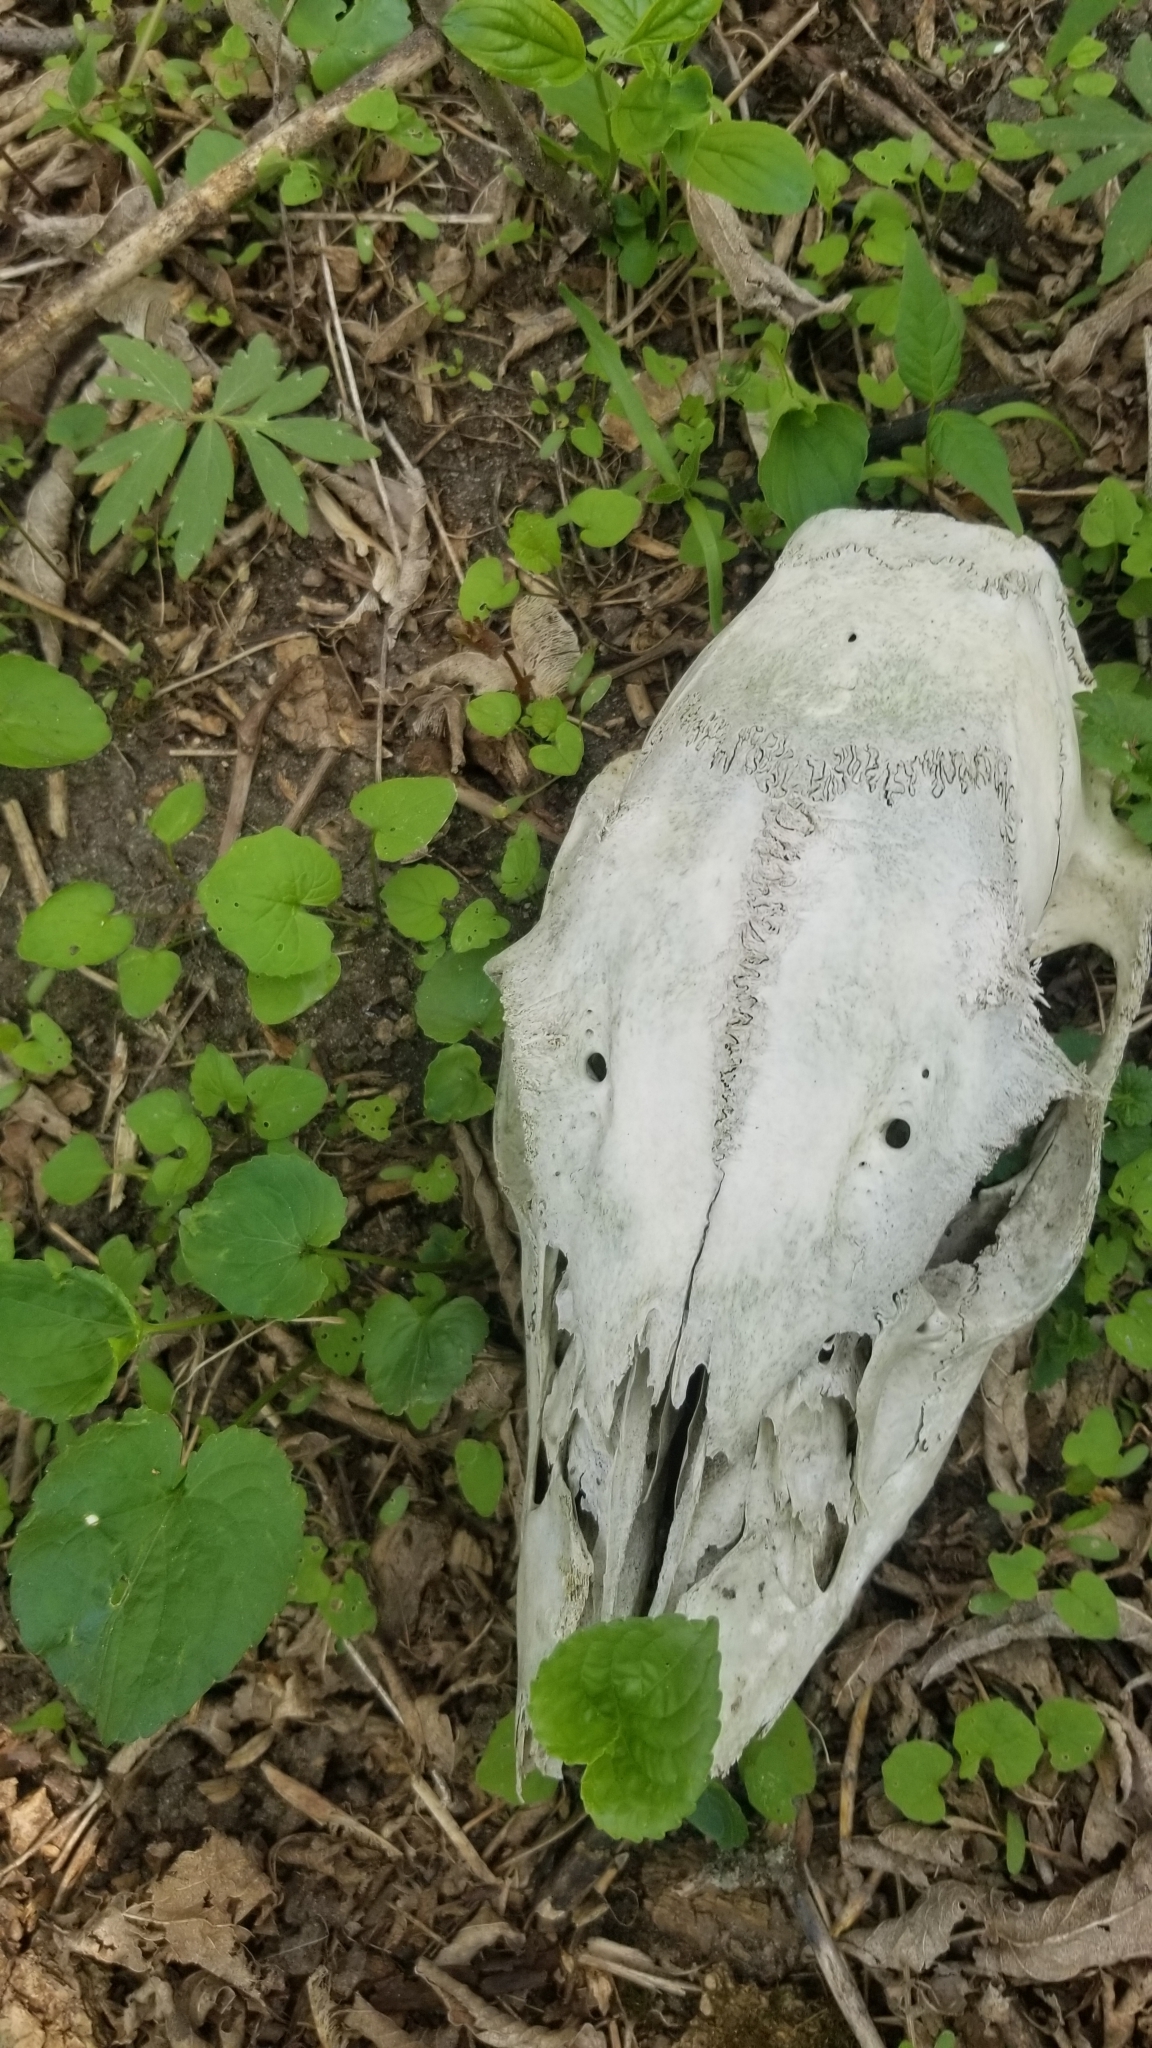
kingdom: Animalia
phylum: Chordata
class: Mammalia
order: Artiodactyla
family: Cervidae
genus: Odocoileus
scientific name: Odocoileus virginianus
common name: White-tailed deer
